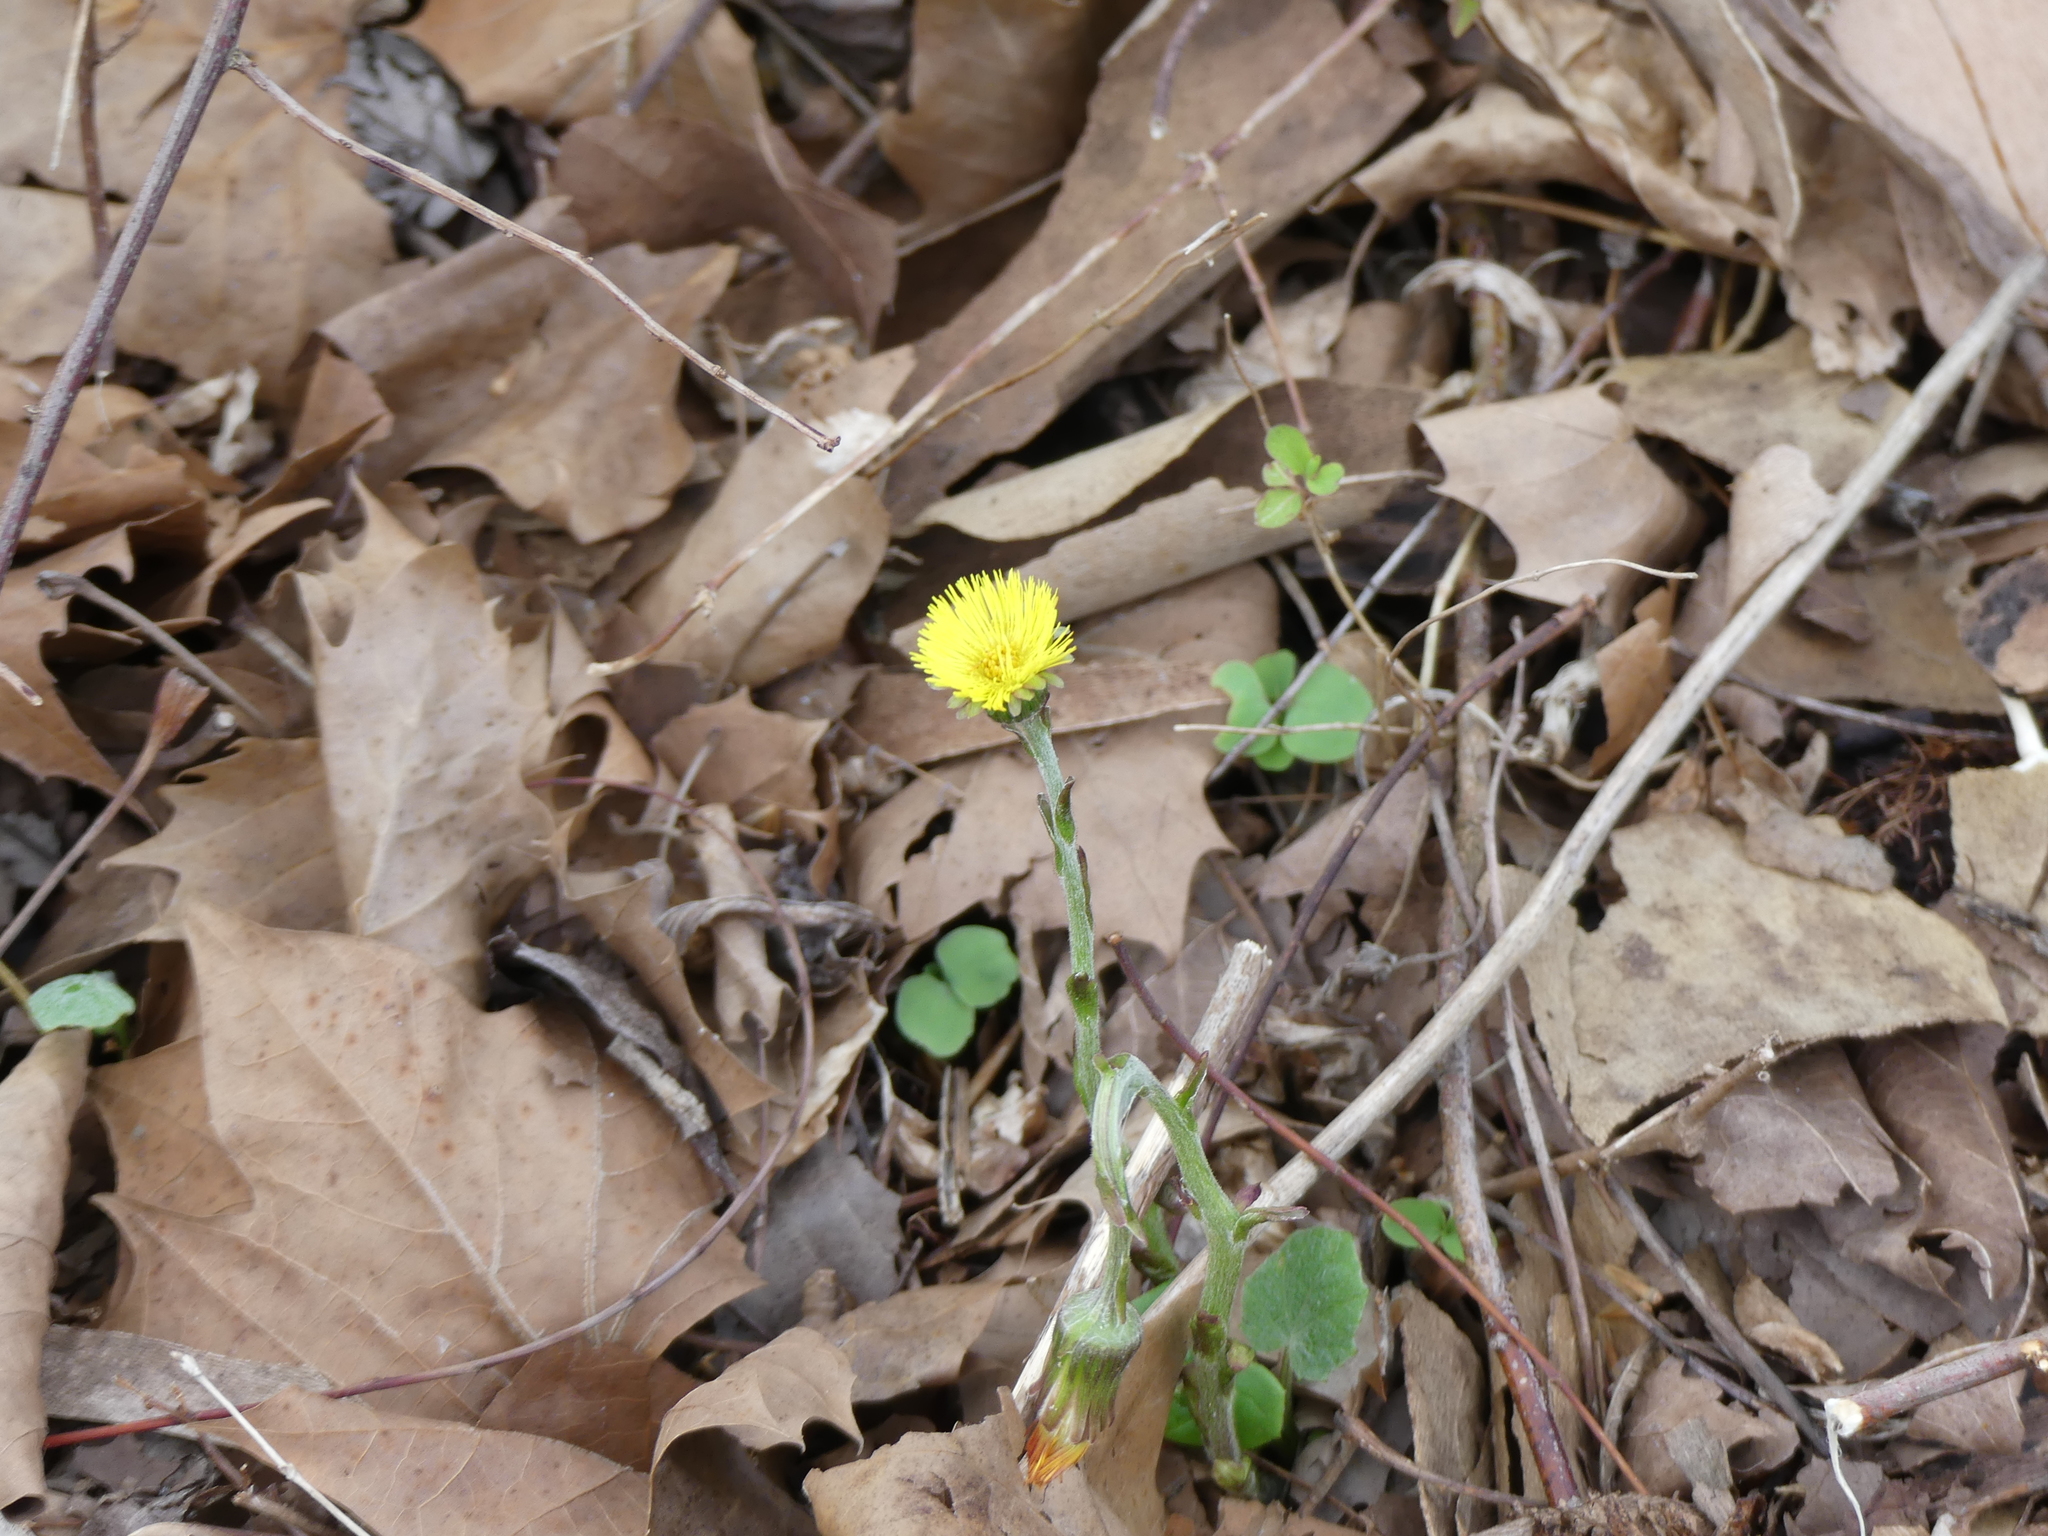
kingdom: Plantae
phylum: Tracheophyta
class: Magnoliopsida
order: Asterales
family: Asteraceae
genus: Tussilago
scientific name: Tussilago farfara
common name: Coltsfoot
